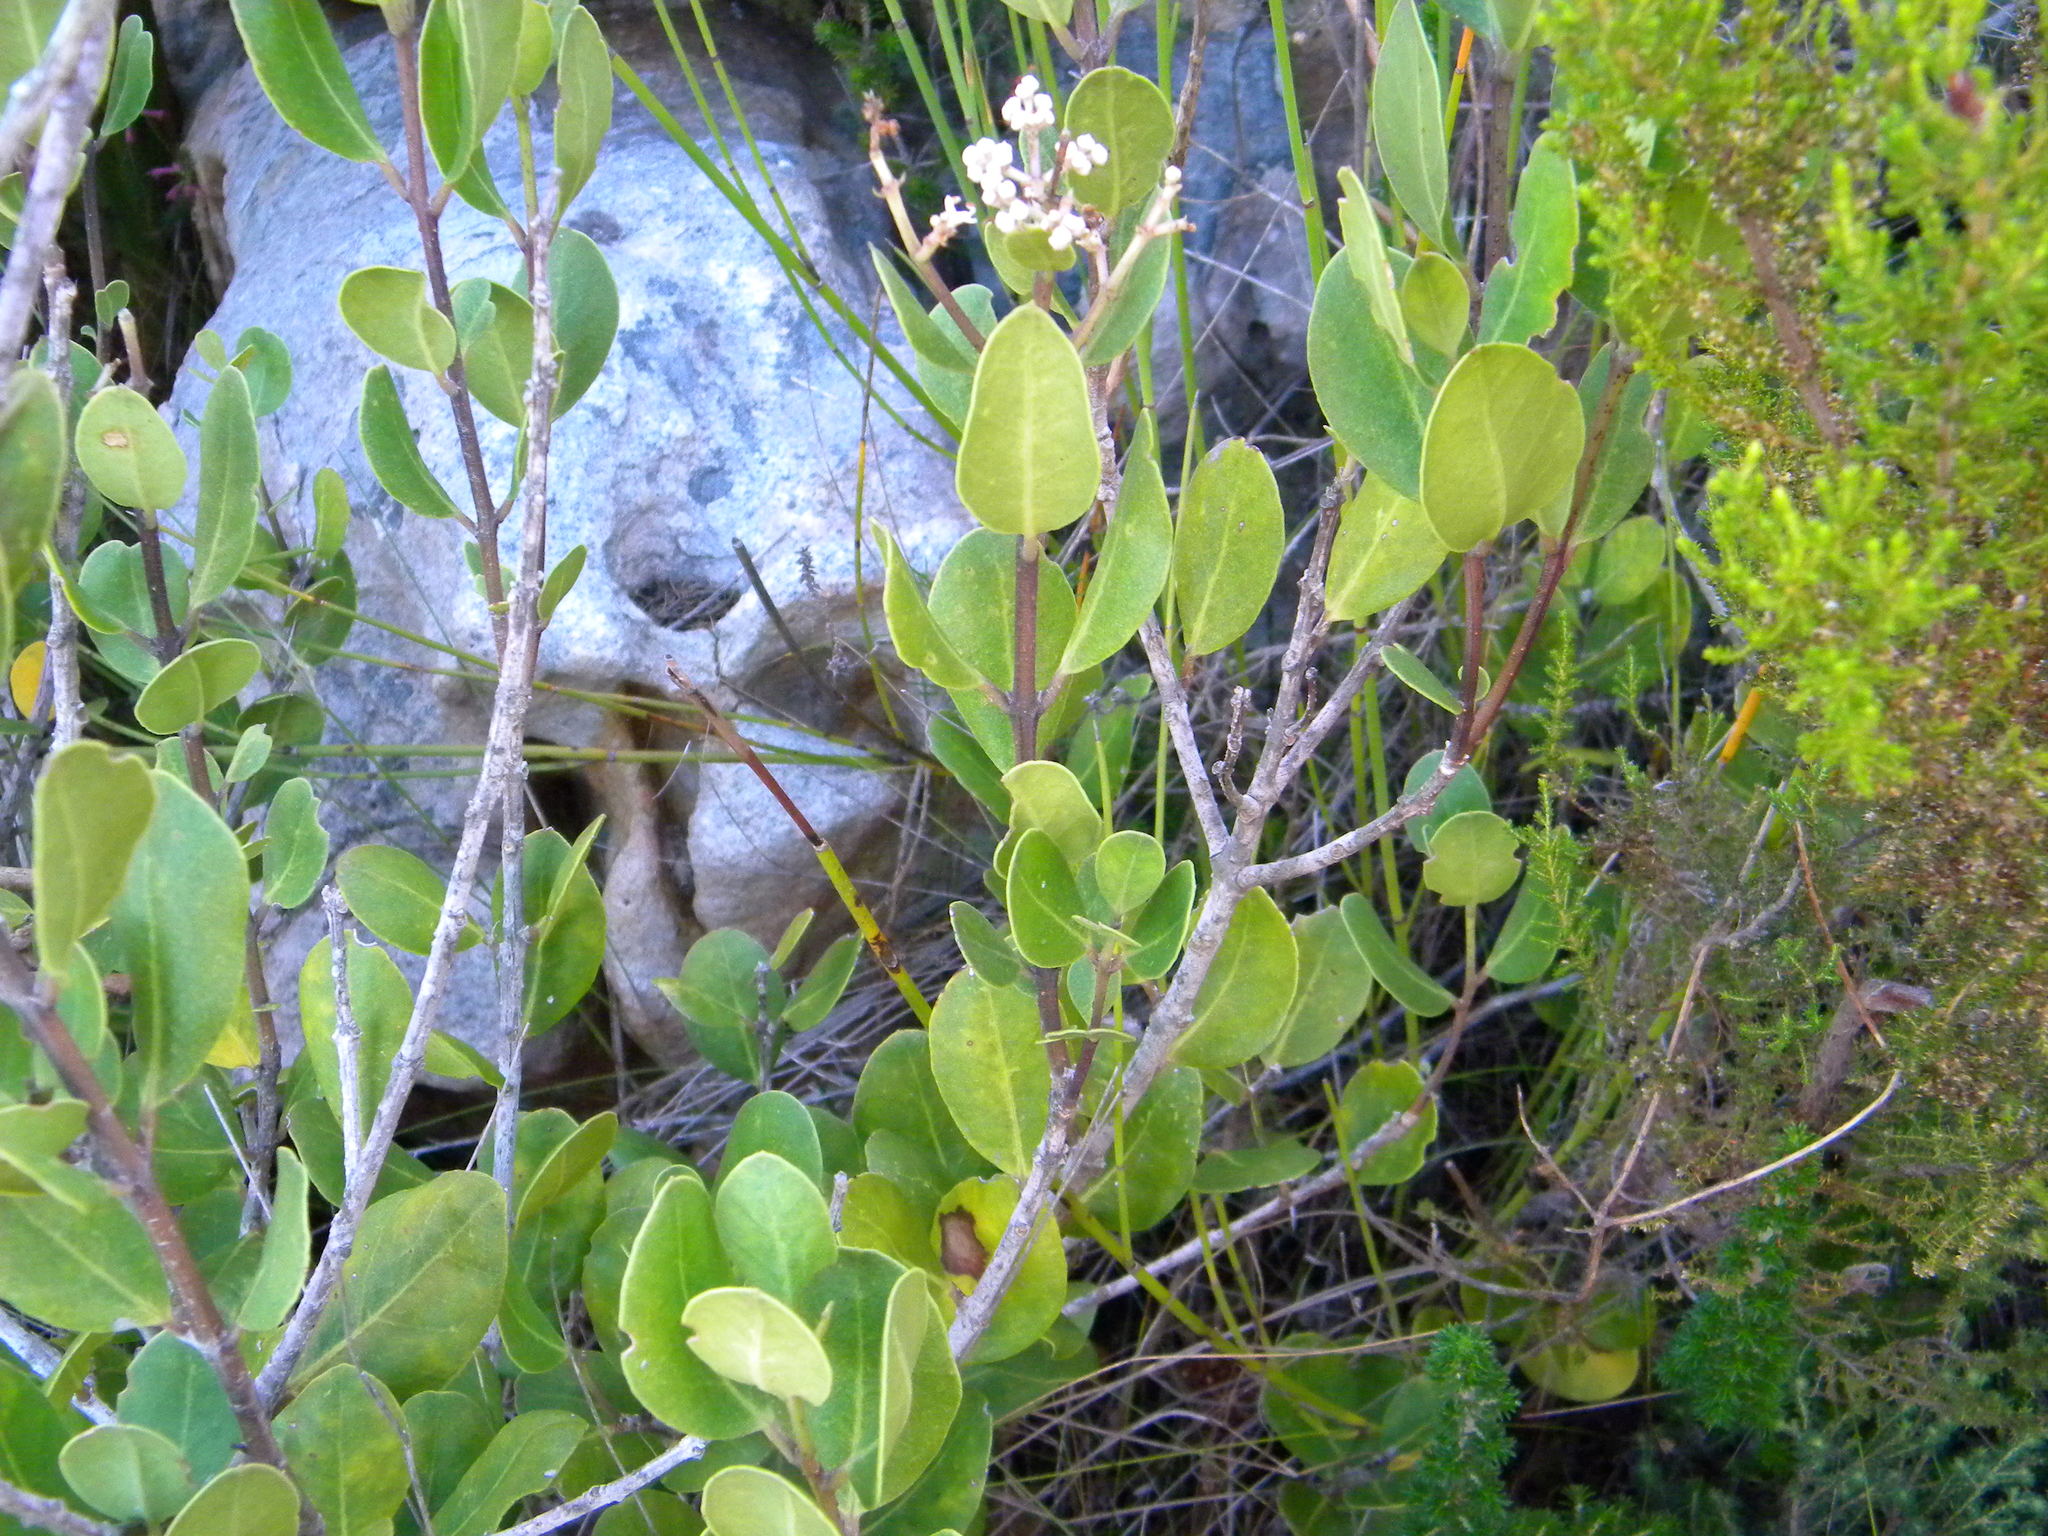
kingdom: Plantae
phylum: Tracheophyta
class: Magnoliopsida
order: Lamiales
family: Oleaceae
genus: Olea
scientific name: Olea capensis
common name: Black ironwood
